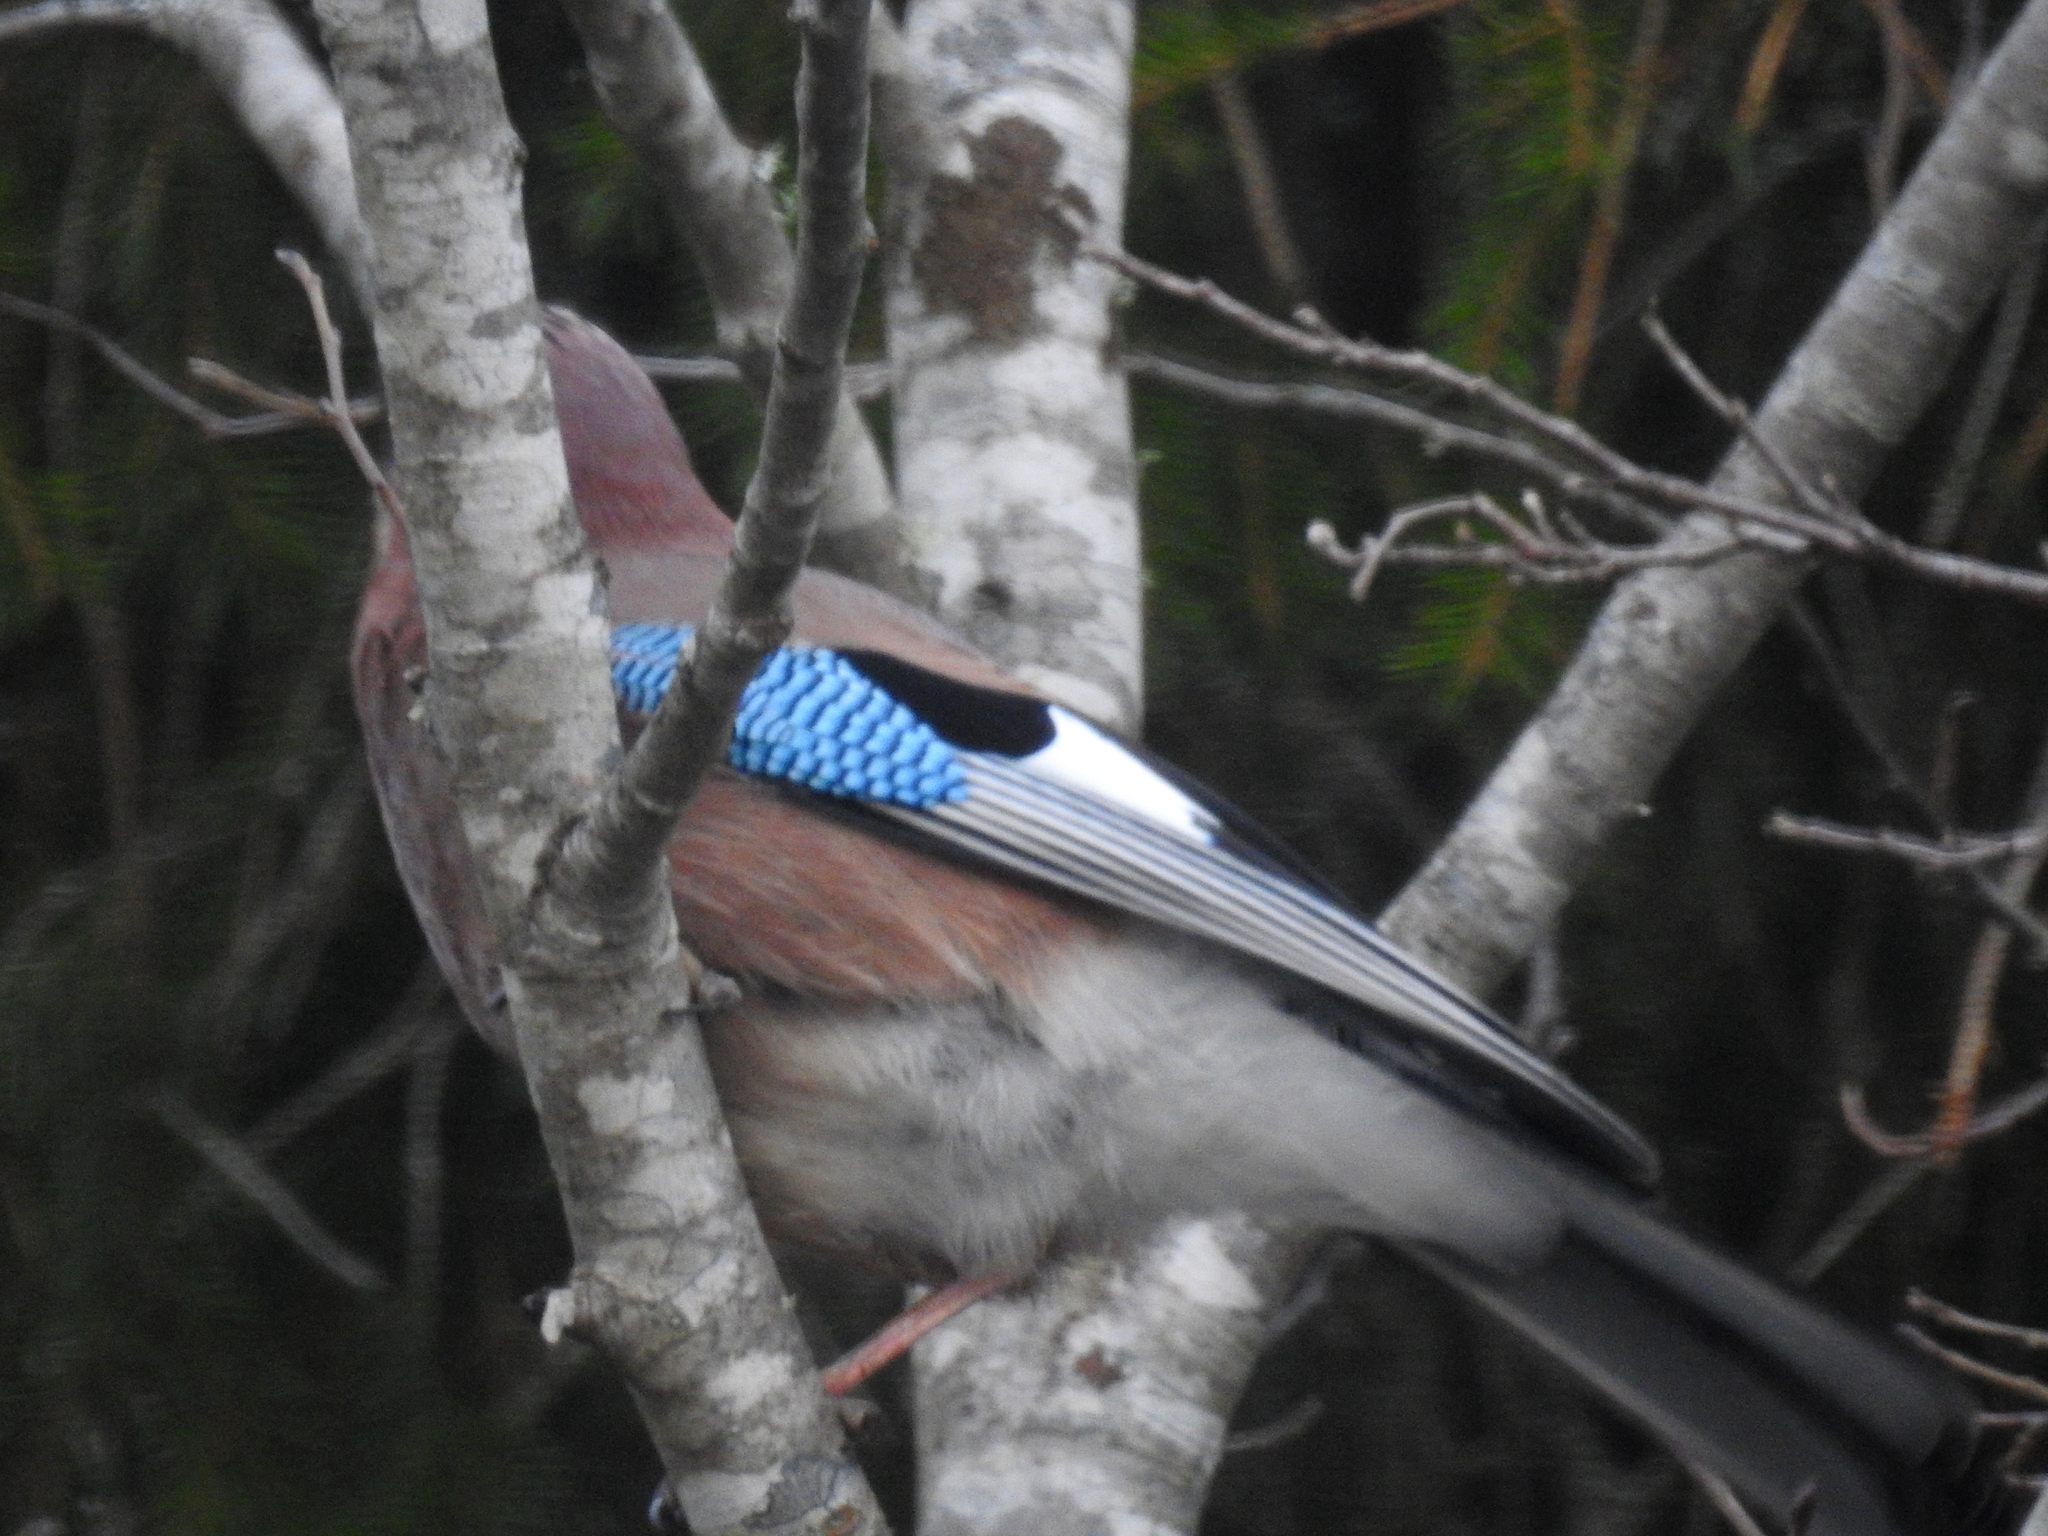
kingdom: Animalia
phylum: Chordata
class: Aves
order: Passeriformes
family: Corvidae
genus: Garrulus
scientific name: Garrulus glandarius
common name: Eurasian jay
